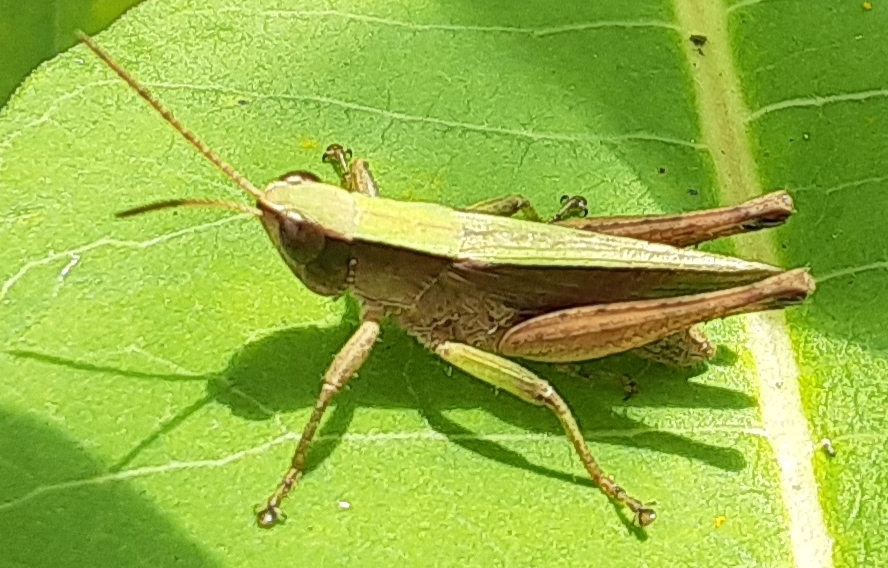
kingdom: Animalia
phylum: Arthropoda
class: Insecta
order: Orthoptera
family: Acrididae
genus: Dichromorpha
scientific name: Dichromorpha viridis
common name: Short-winged green grasshopper
